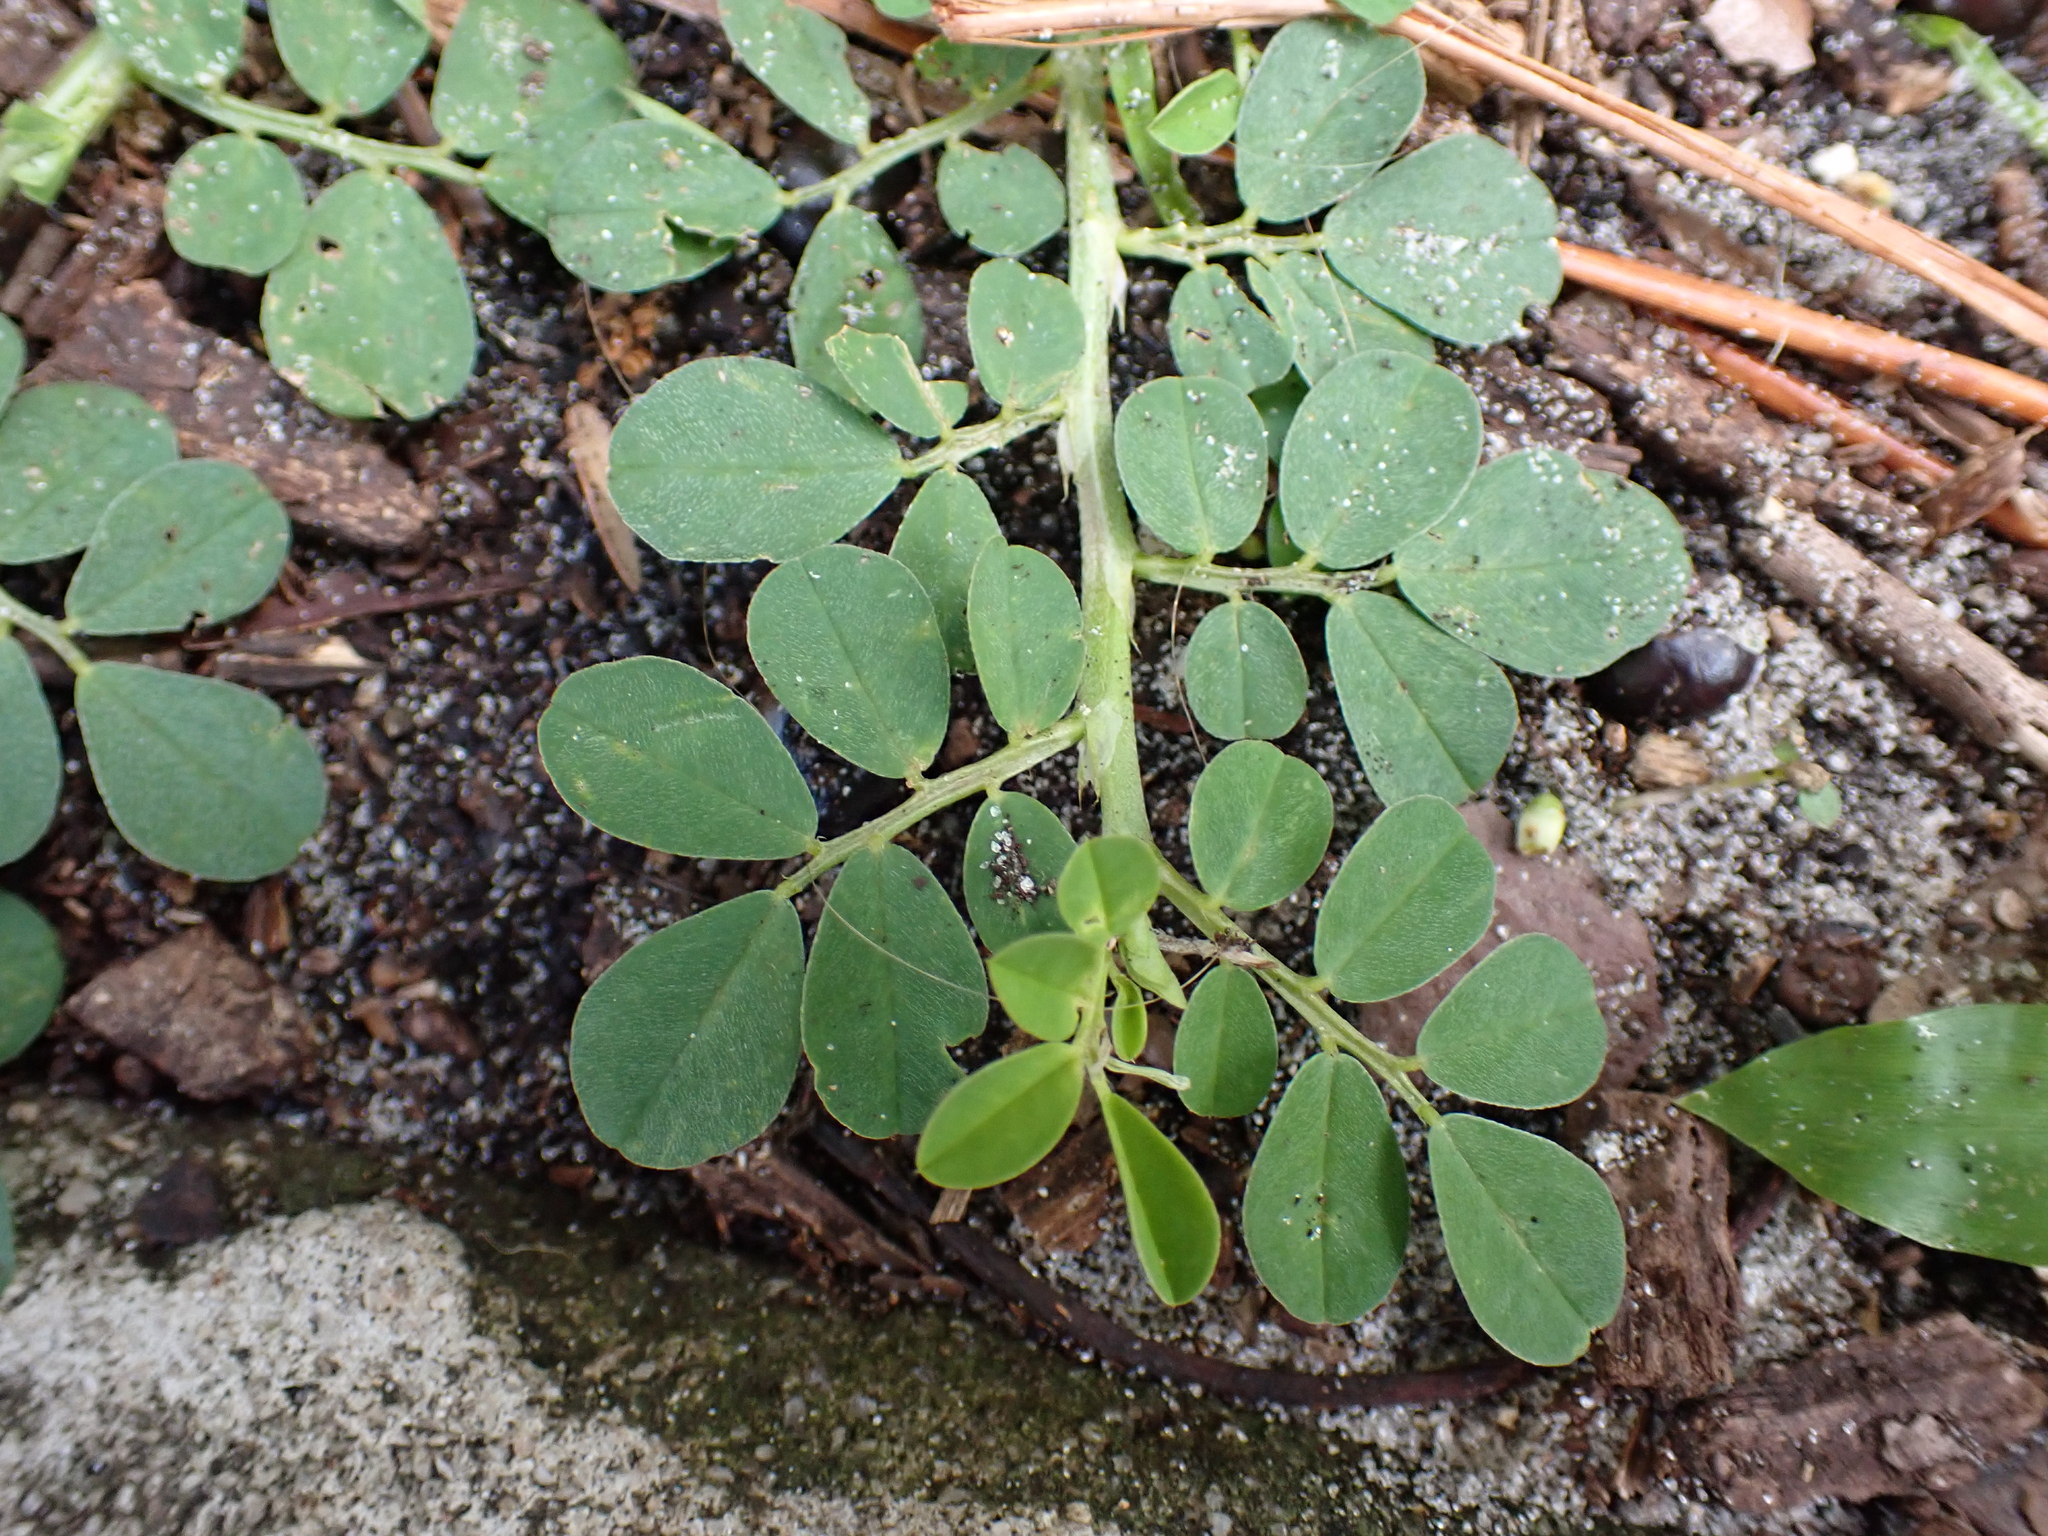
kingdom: Plantae
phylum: Tracheophyta
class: Magnoliopsida
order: Fabales
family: Fabaceae
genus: Indigofera
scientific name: Indigofera spicata
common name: Creeping indigo
